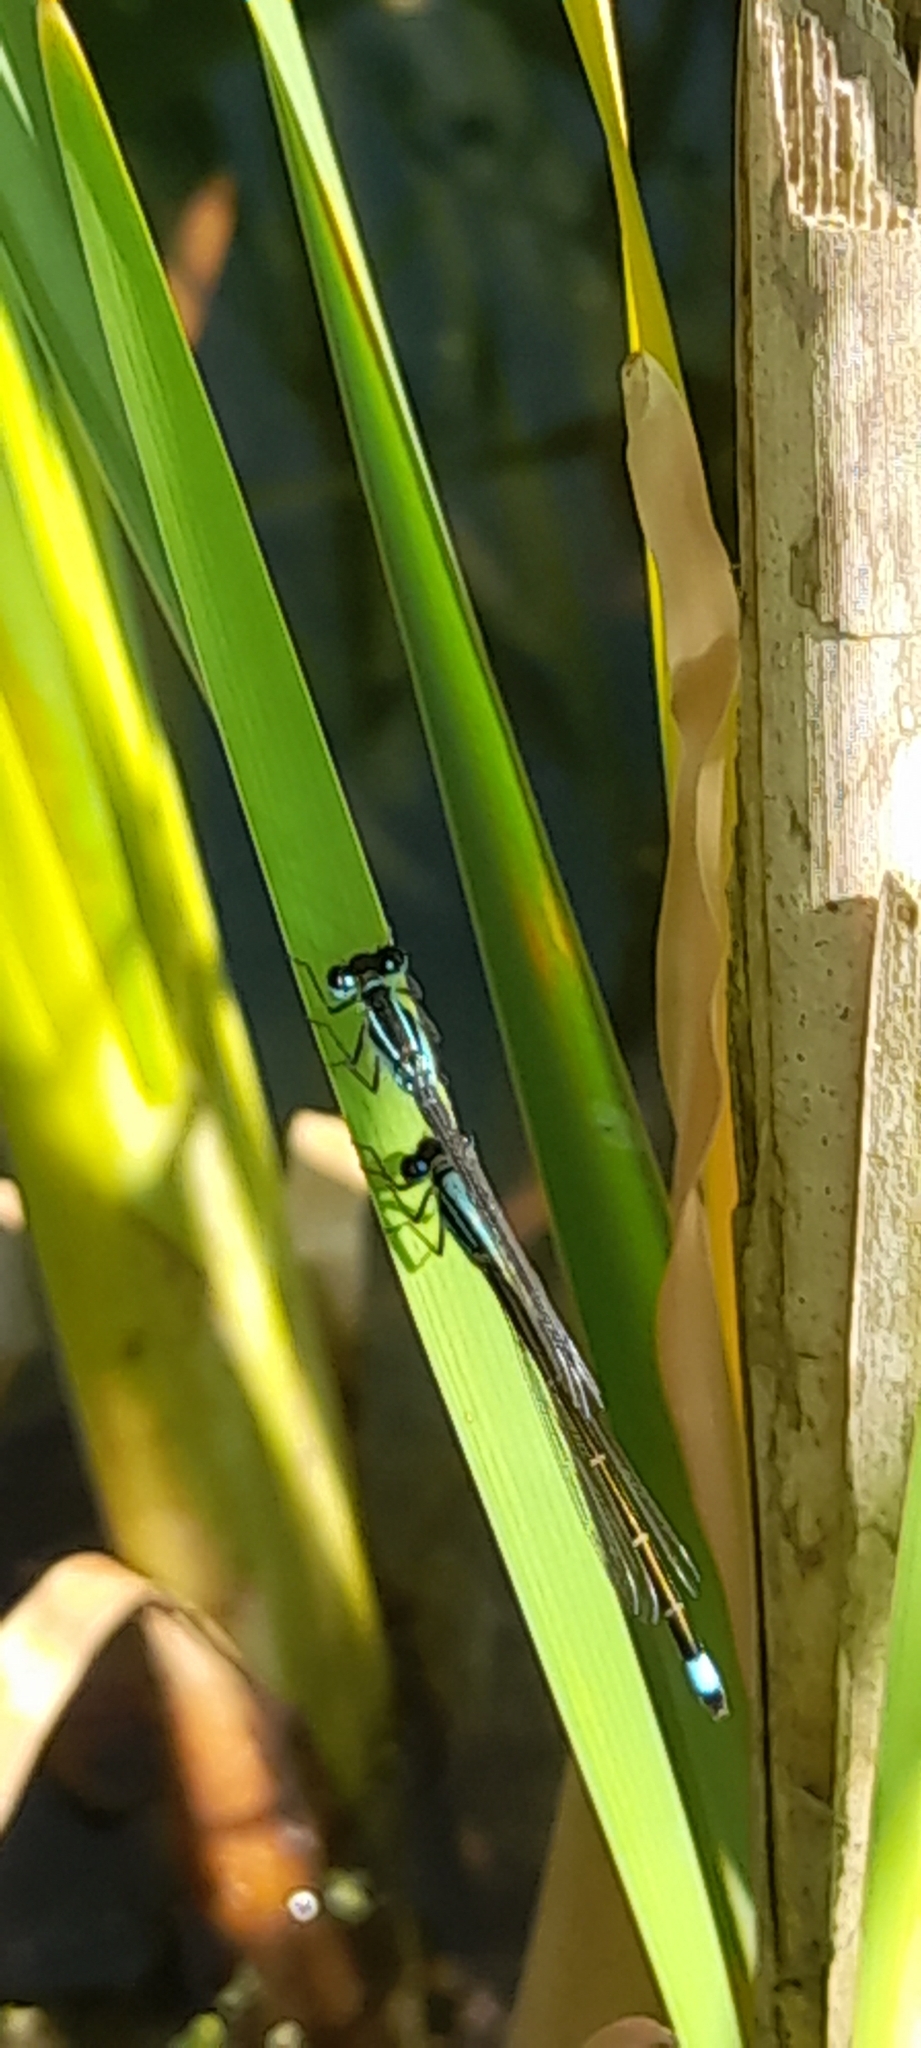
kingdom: Animalia
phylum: Arthropoda
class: Insecta
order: Odonata
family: Coenagrionidae
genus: Ischnura
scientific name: Ischnura elegans
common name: Blue-tailed damselfly
